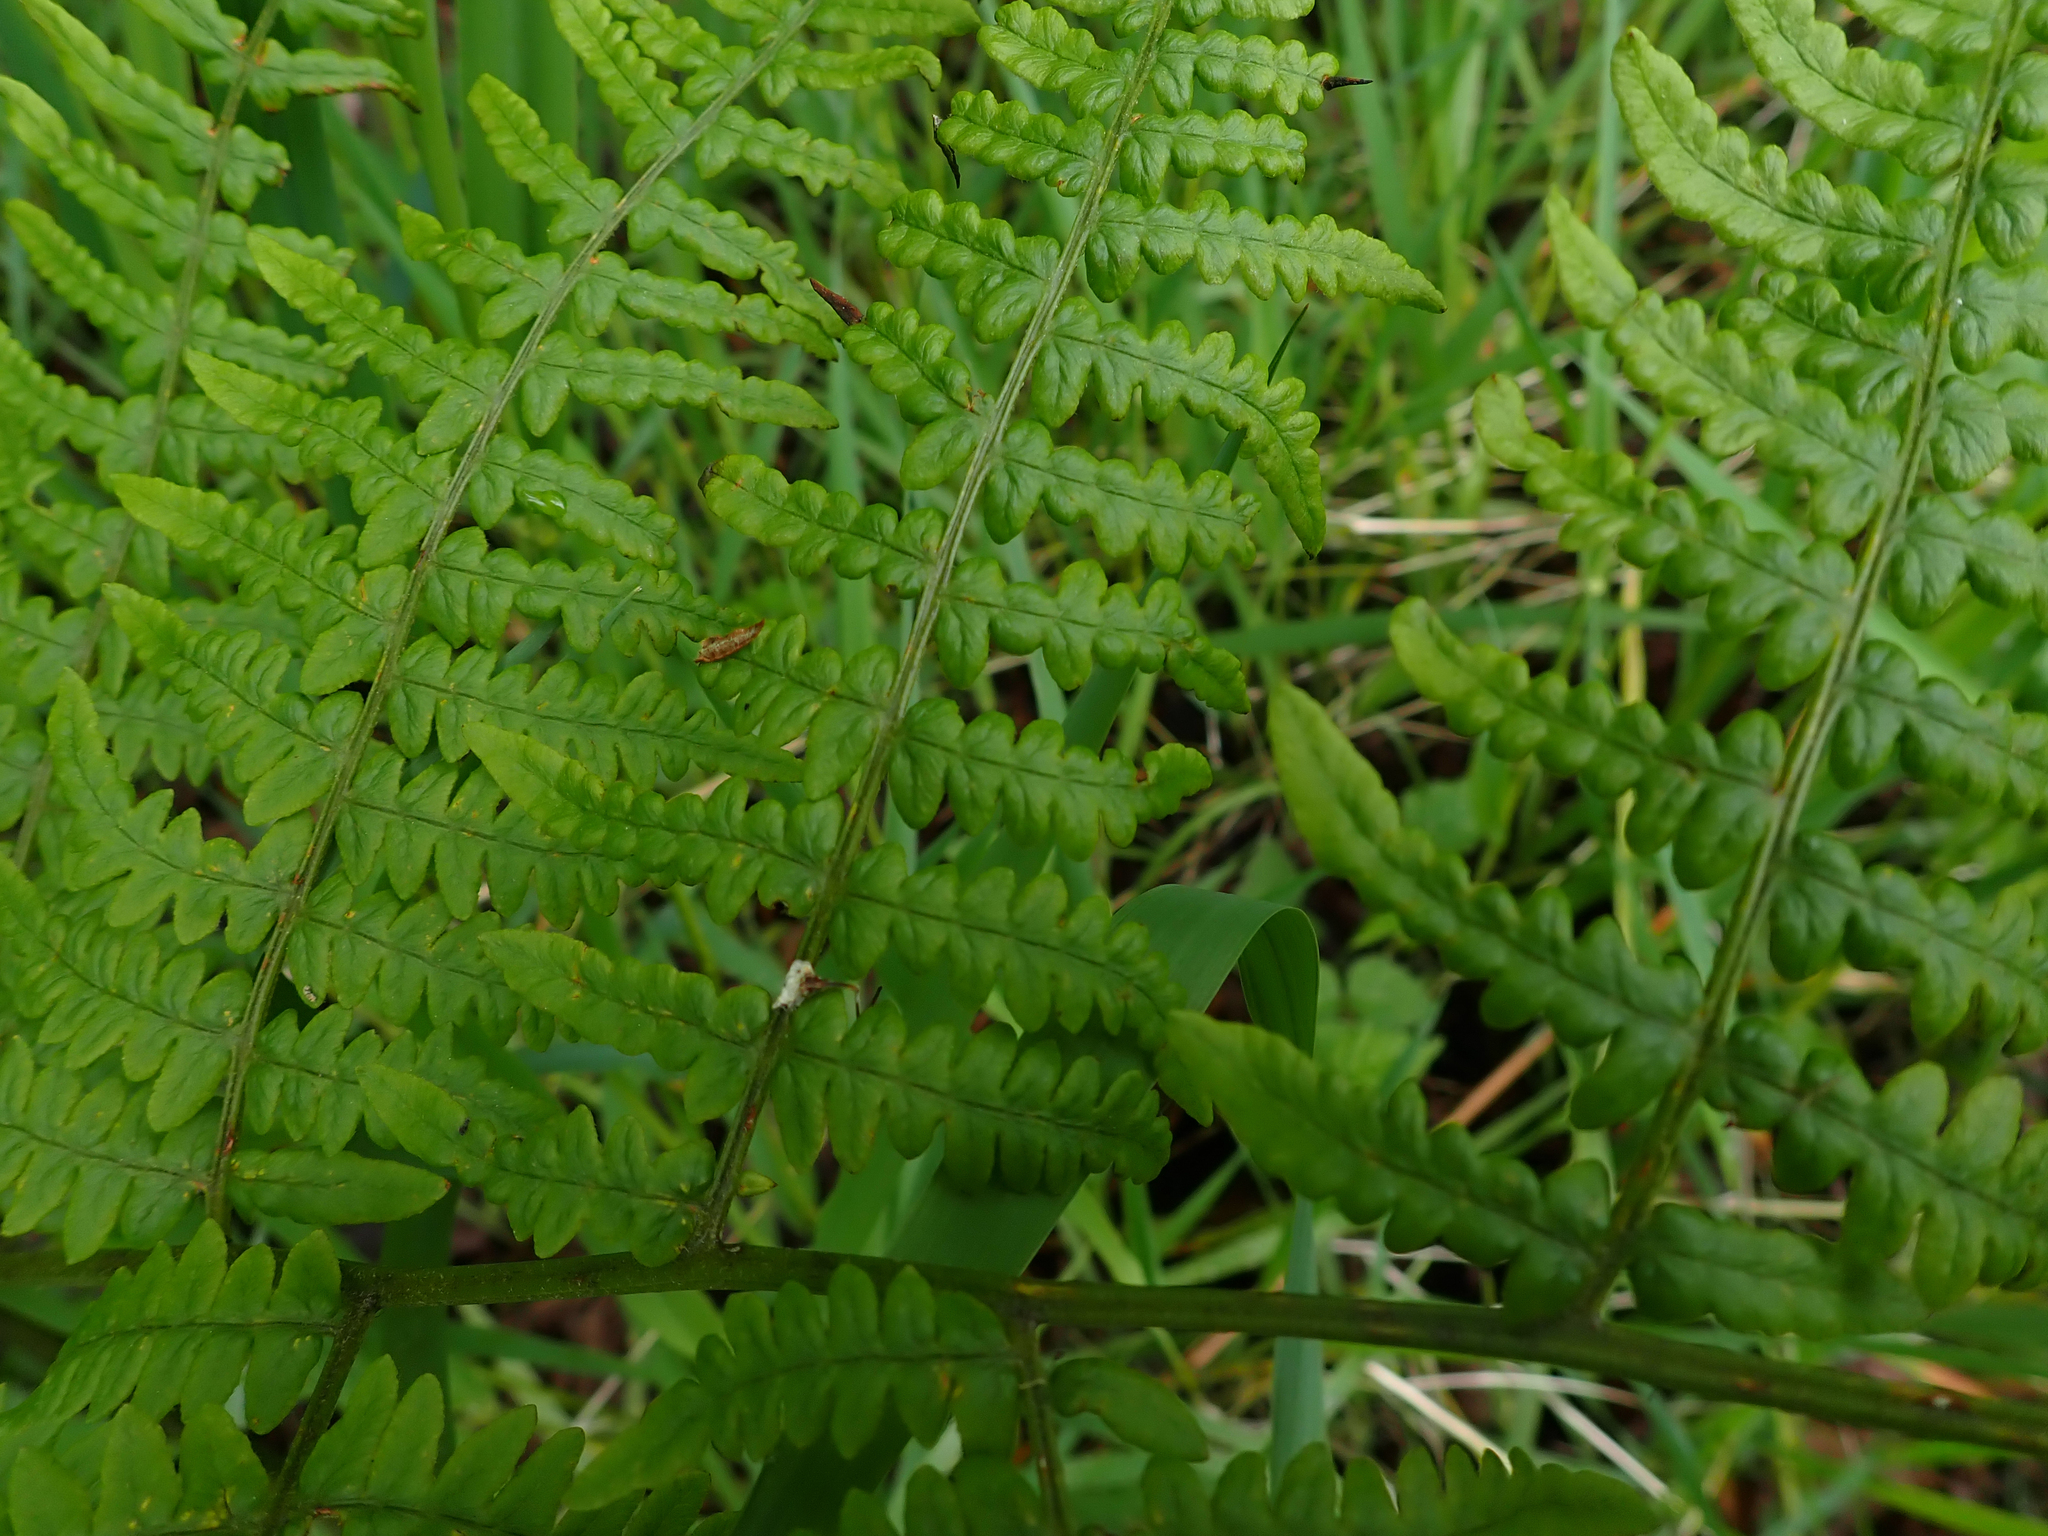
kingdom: Plantae
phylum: Tracheophyta
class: Polypodiopsida
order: Polypodiales
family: Dennstaedtiaceae
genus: Pteridium
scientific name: Pteridium aquilinum
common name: Bracken
